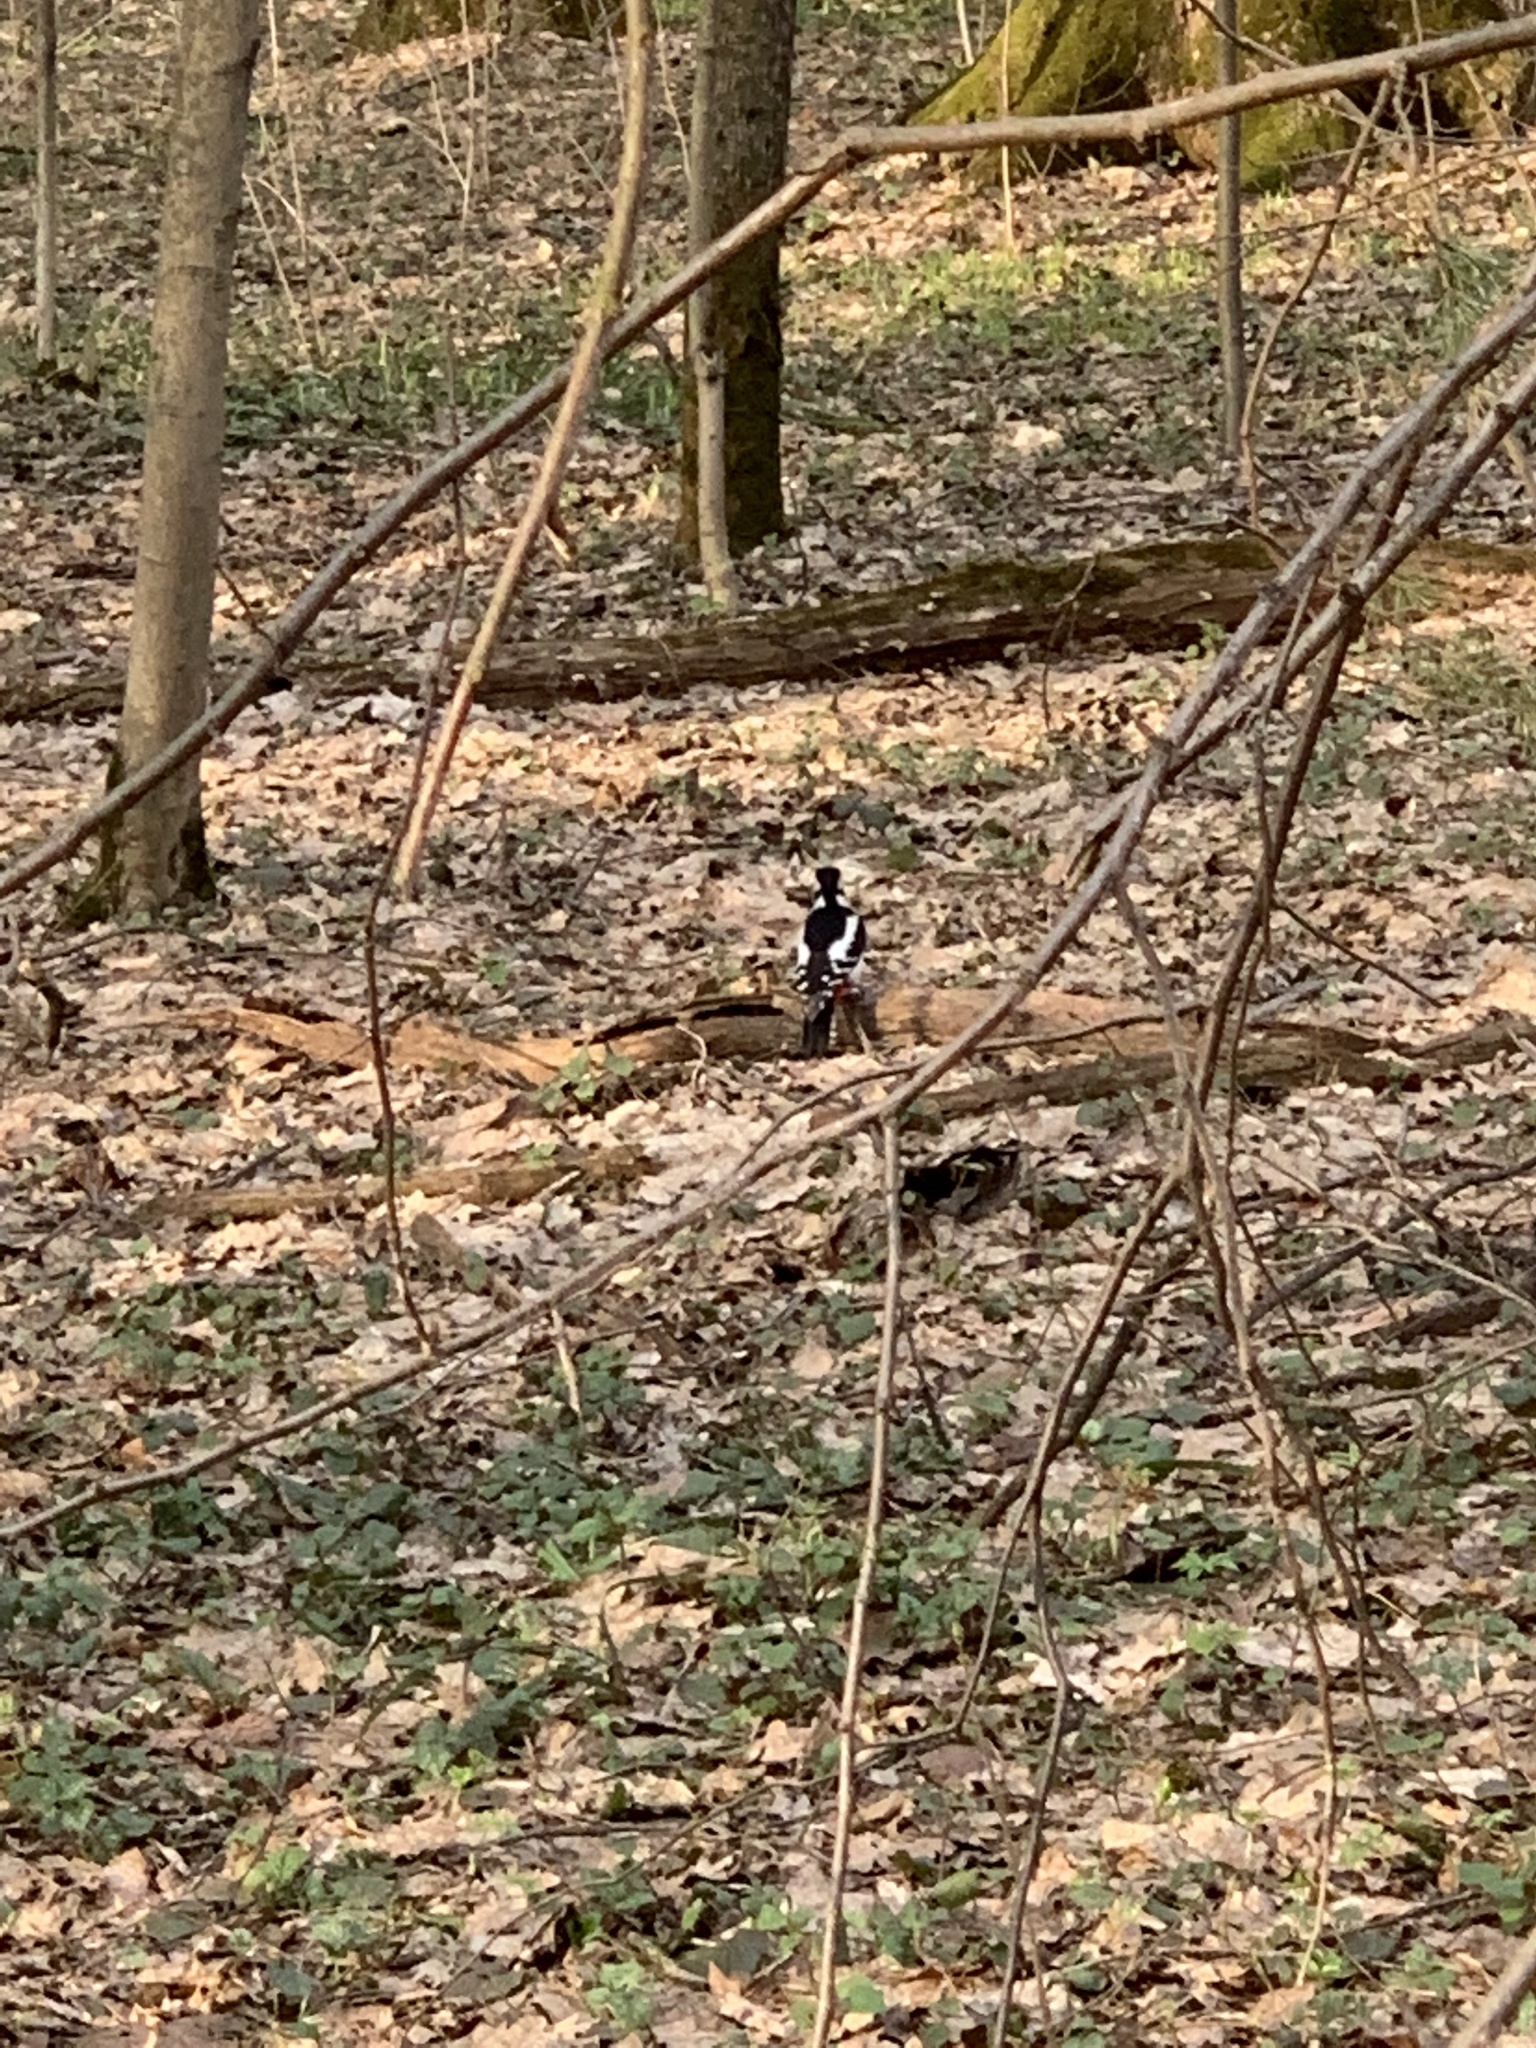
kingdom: Animalia
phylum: Chordata
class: Aves
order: Piciformes
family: Picidae
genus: Dendrocopos
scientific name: Dendrocopos major
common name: Great spotted woodpecker
